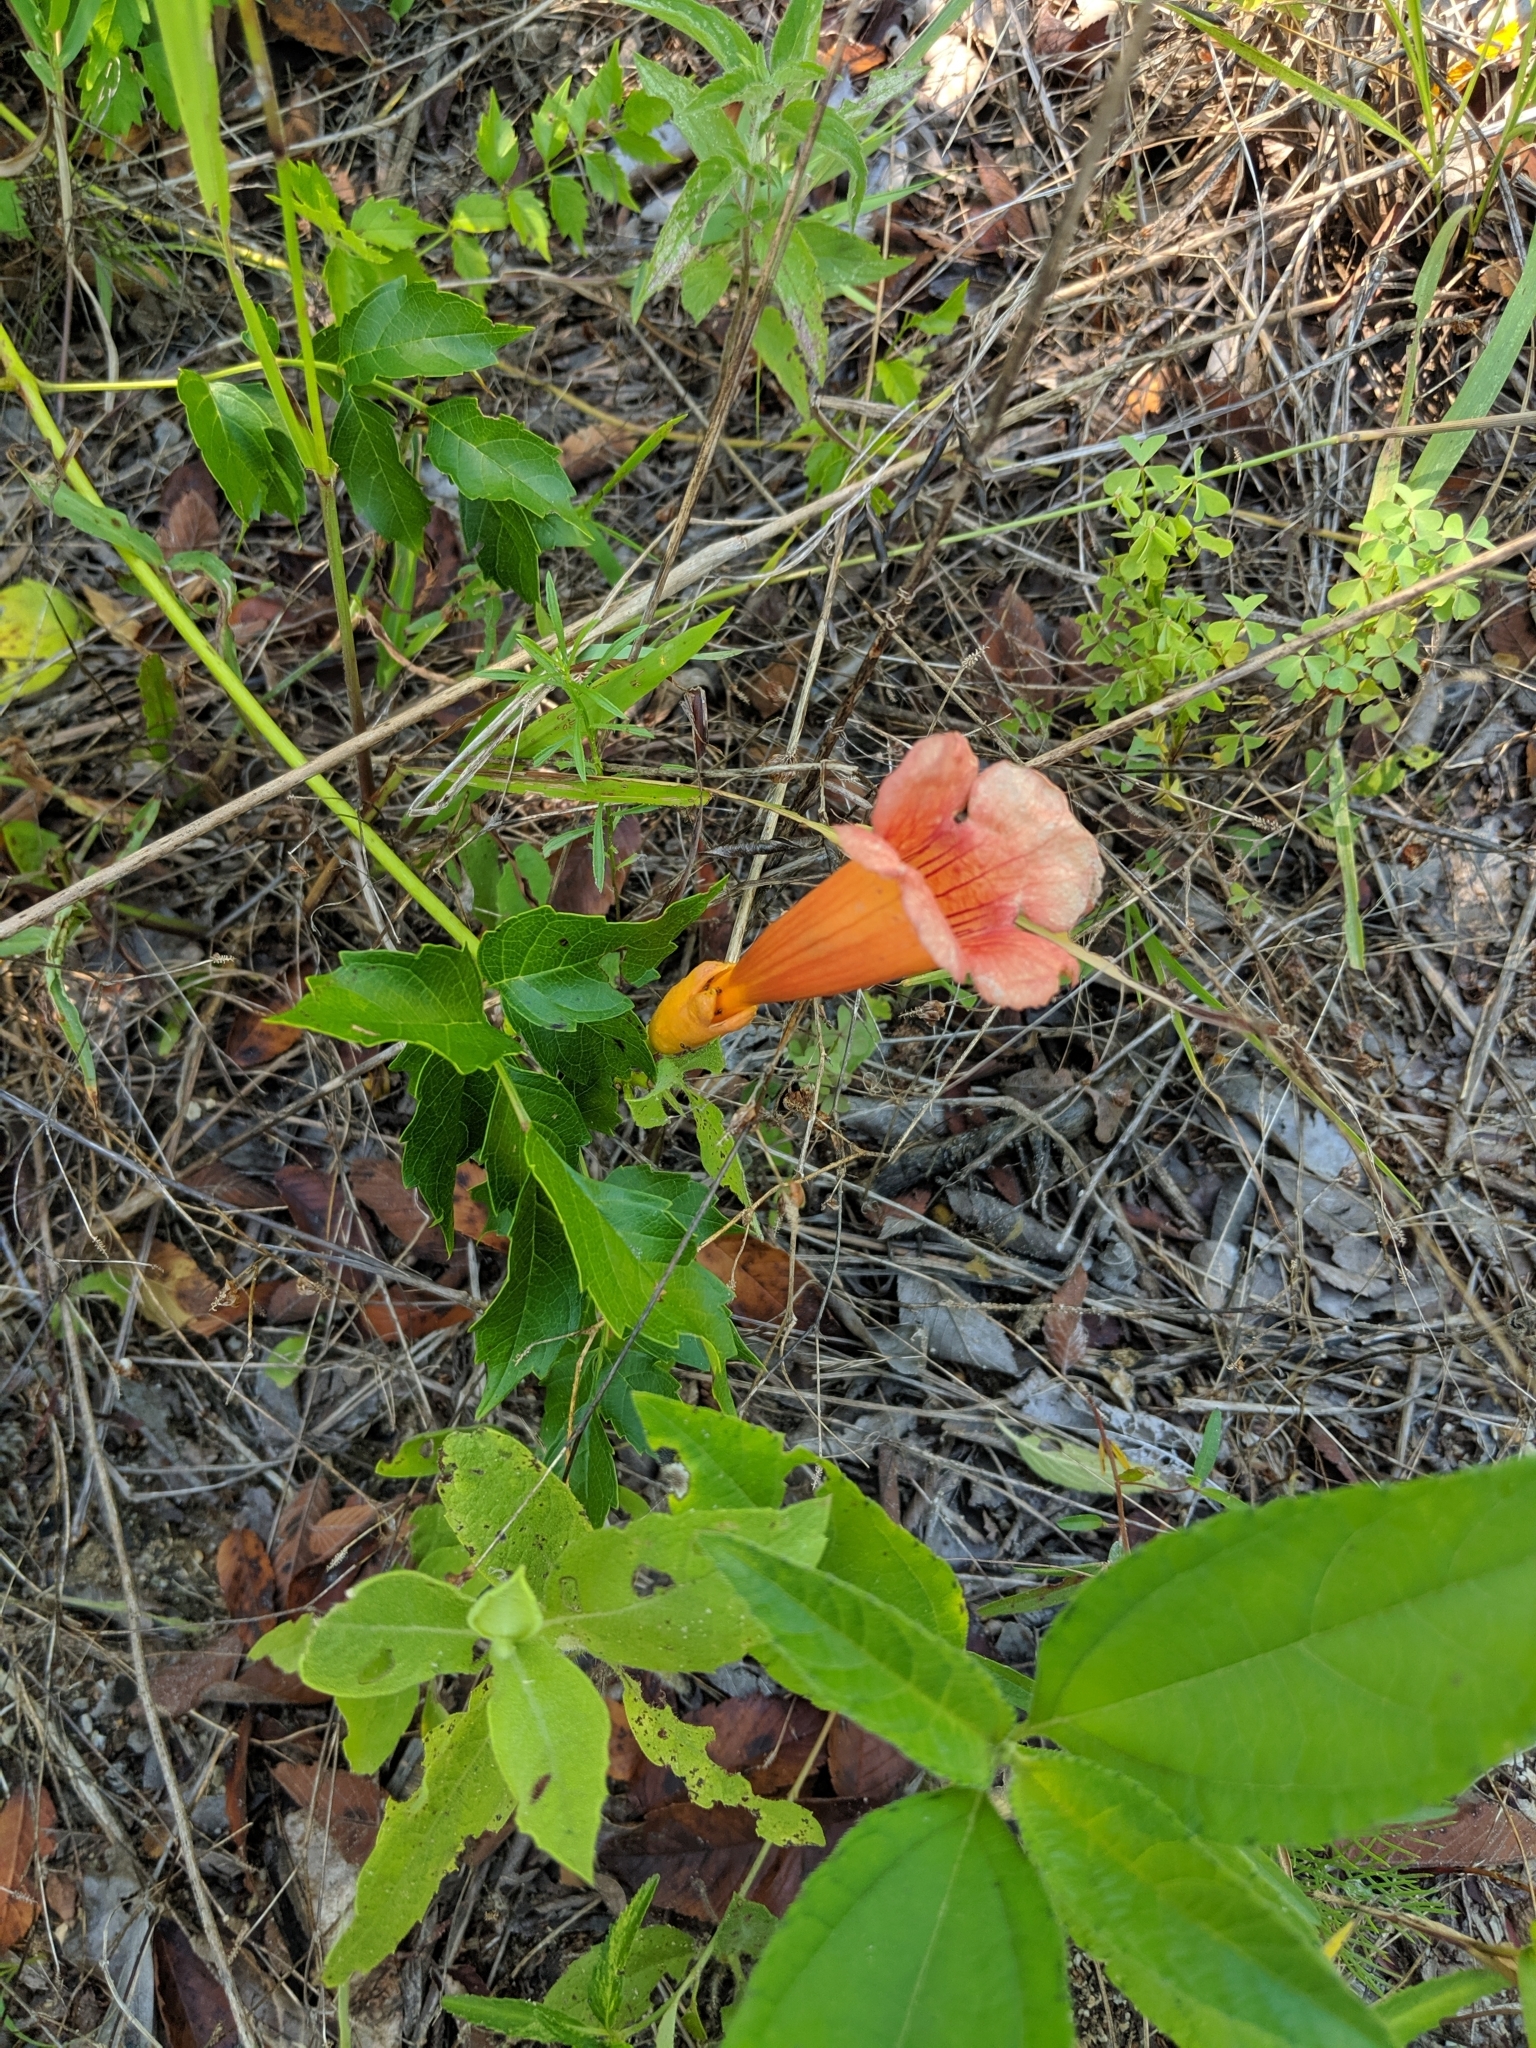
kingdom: Plantae
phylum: Tracheophyta
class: Magnoliopsida
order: Lamiales
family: Bignoniaceae
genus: Campsis
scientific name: Campsis radicans
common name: Trumpet-creeper
